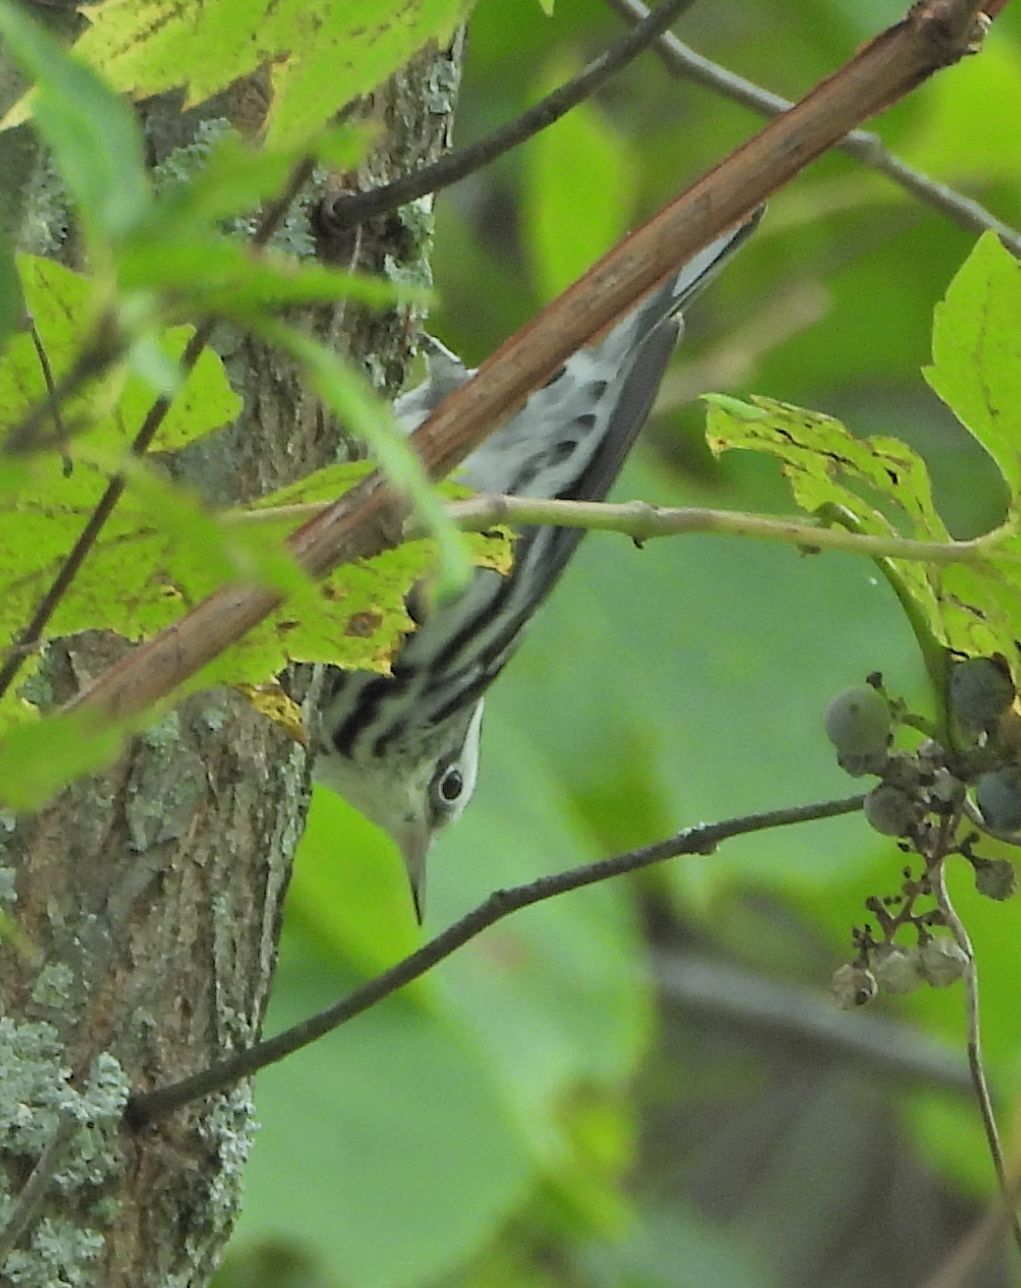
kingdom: Animalia
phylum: Chordata
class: Aves
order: Passeriformes
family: Parulidae
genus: Mniotilta
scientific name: Mniotilta varia
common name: Black-and-white warbler
